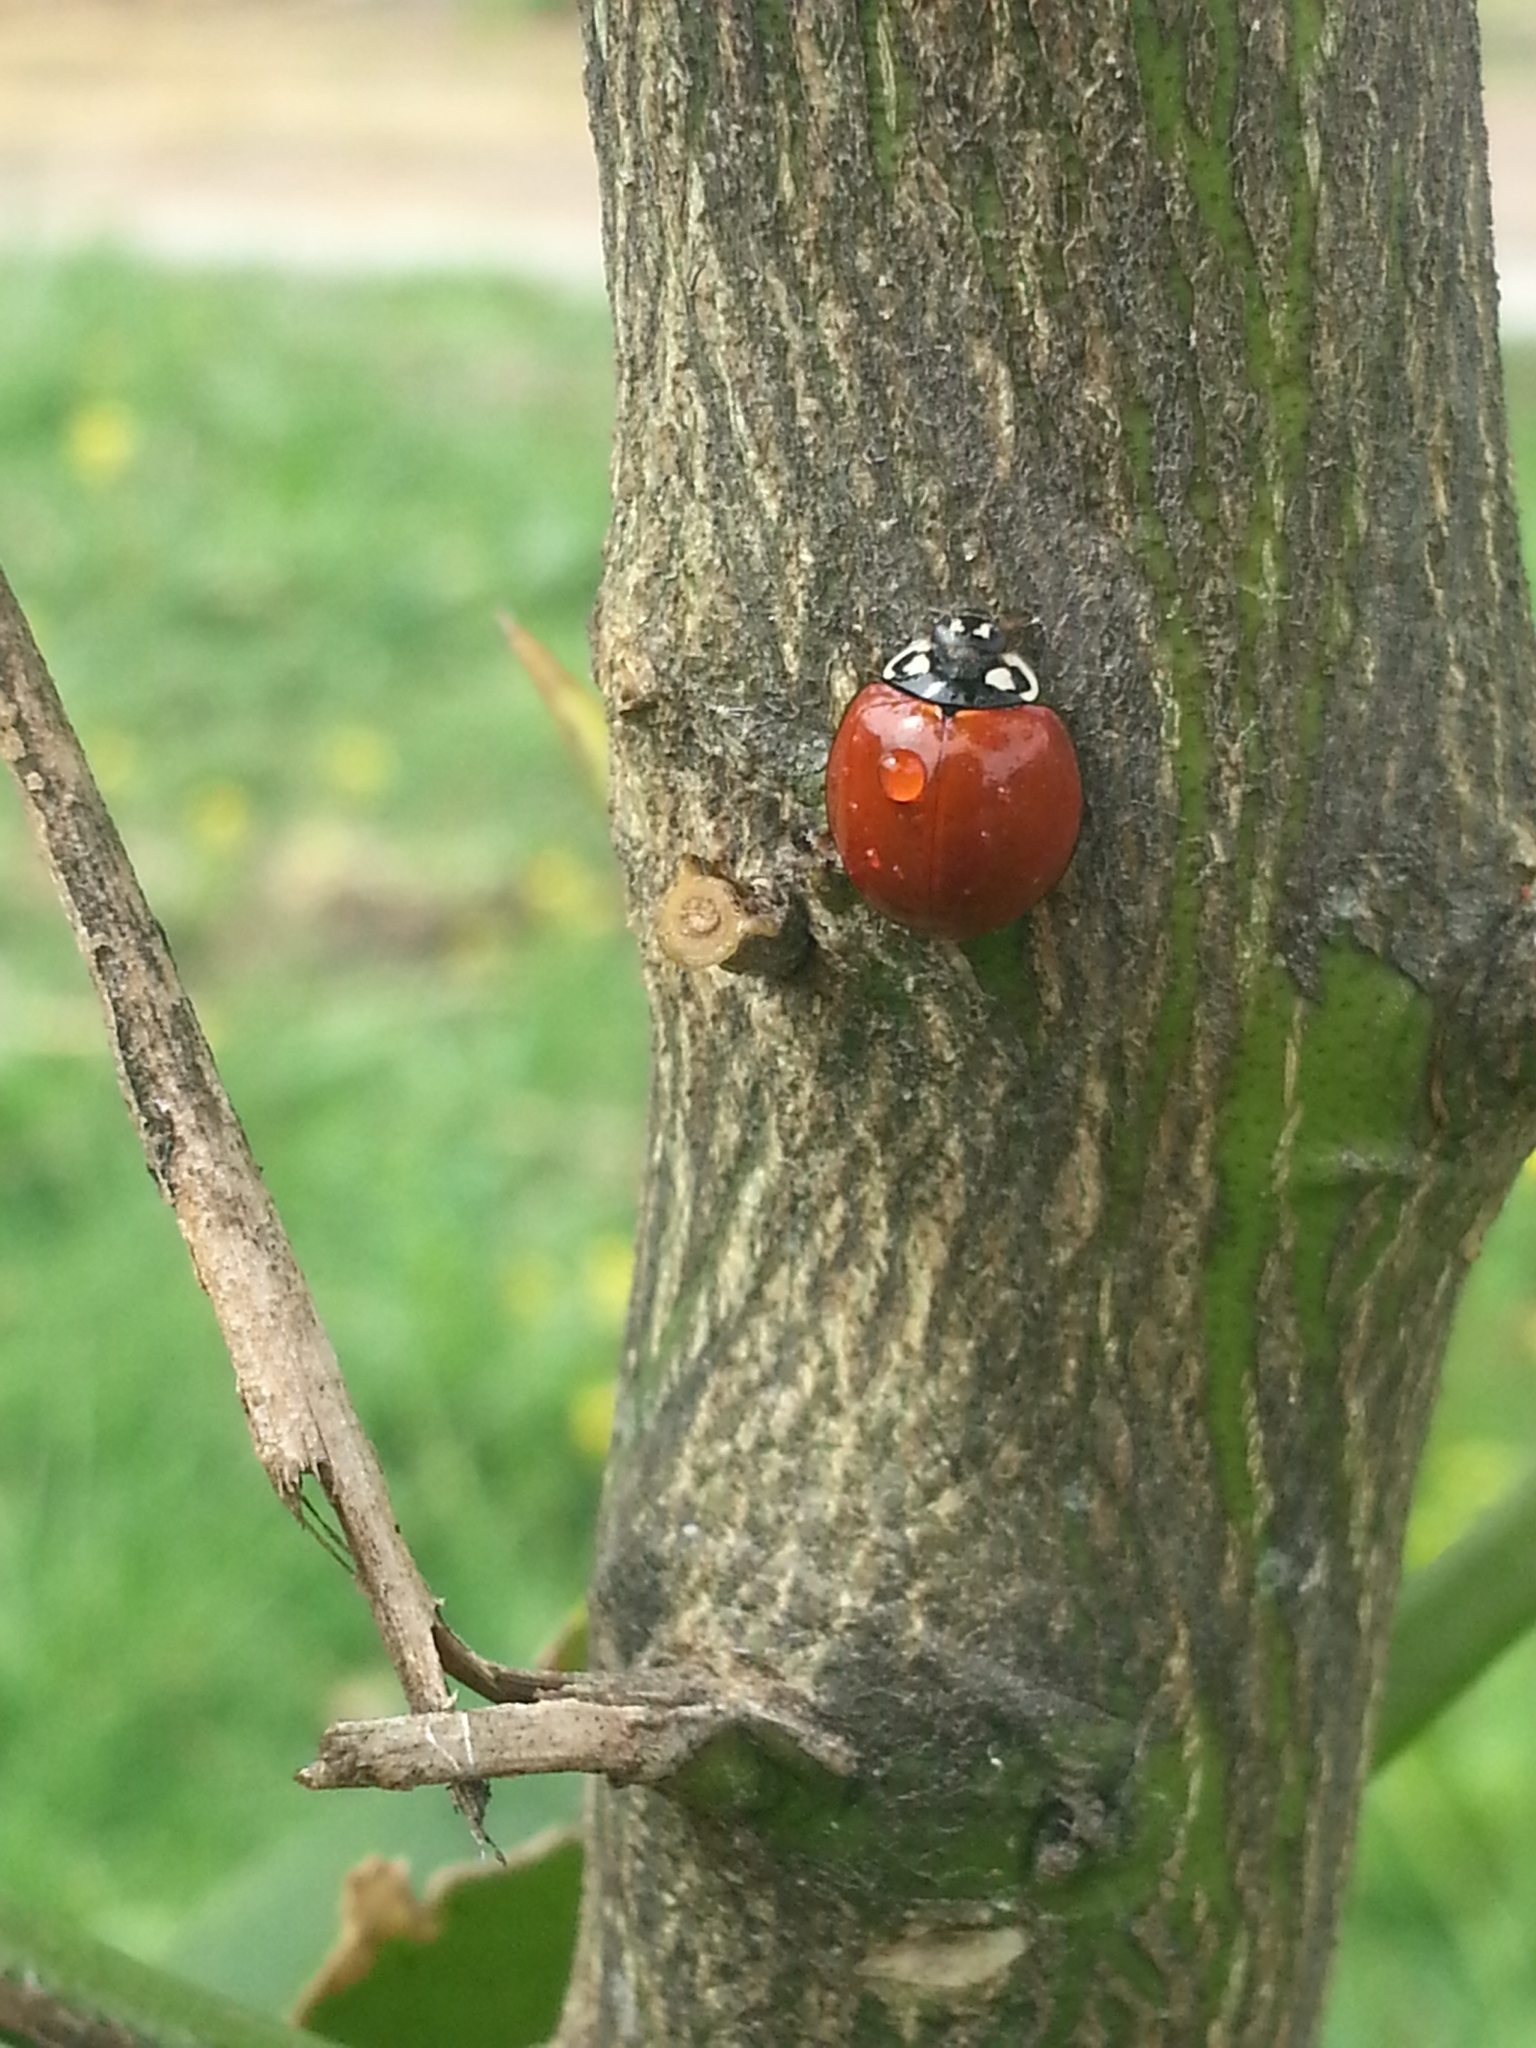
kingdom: Animalia
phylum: Arthropoda
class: Insecta
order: Coleoptera
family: Coccinellidae
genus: Cycloneda
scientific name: Cycloneda sanguinea
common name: Ladybird beetle
